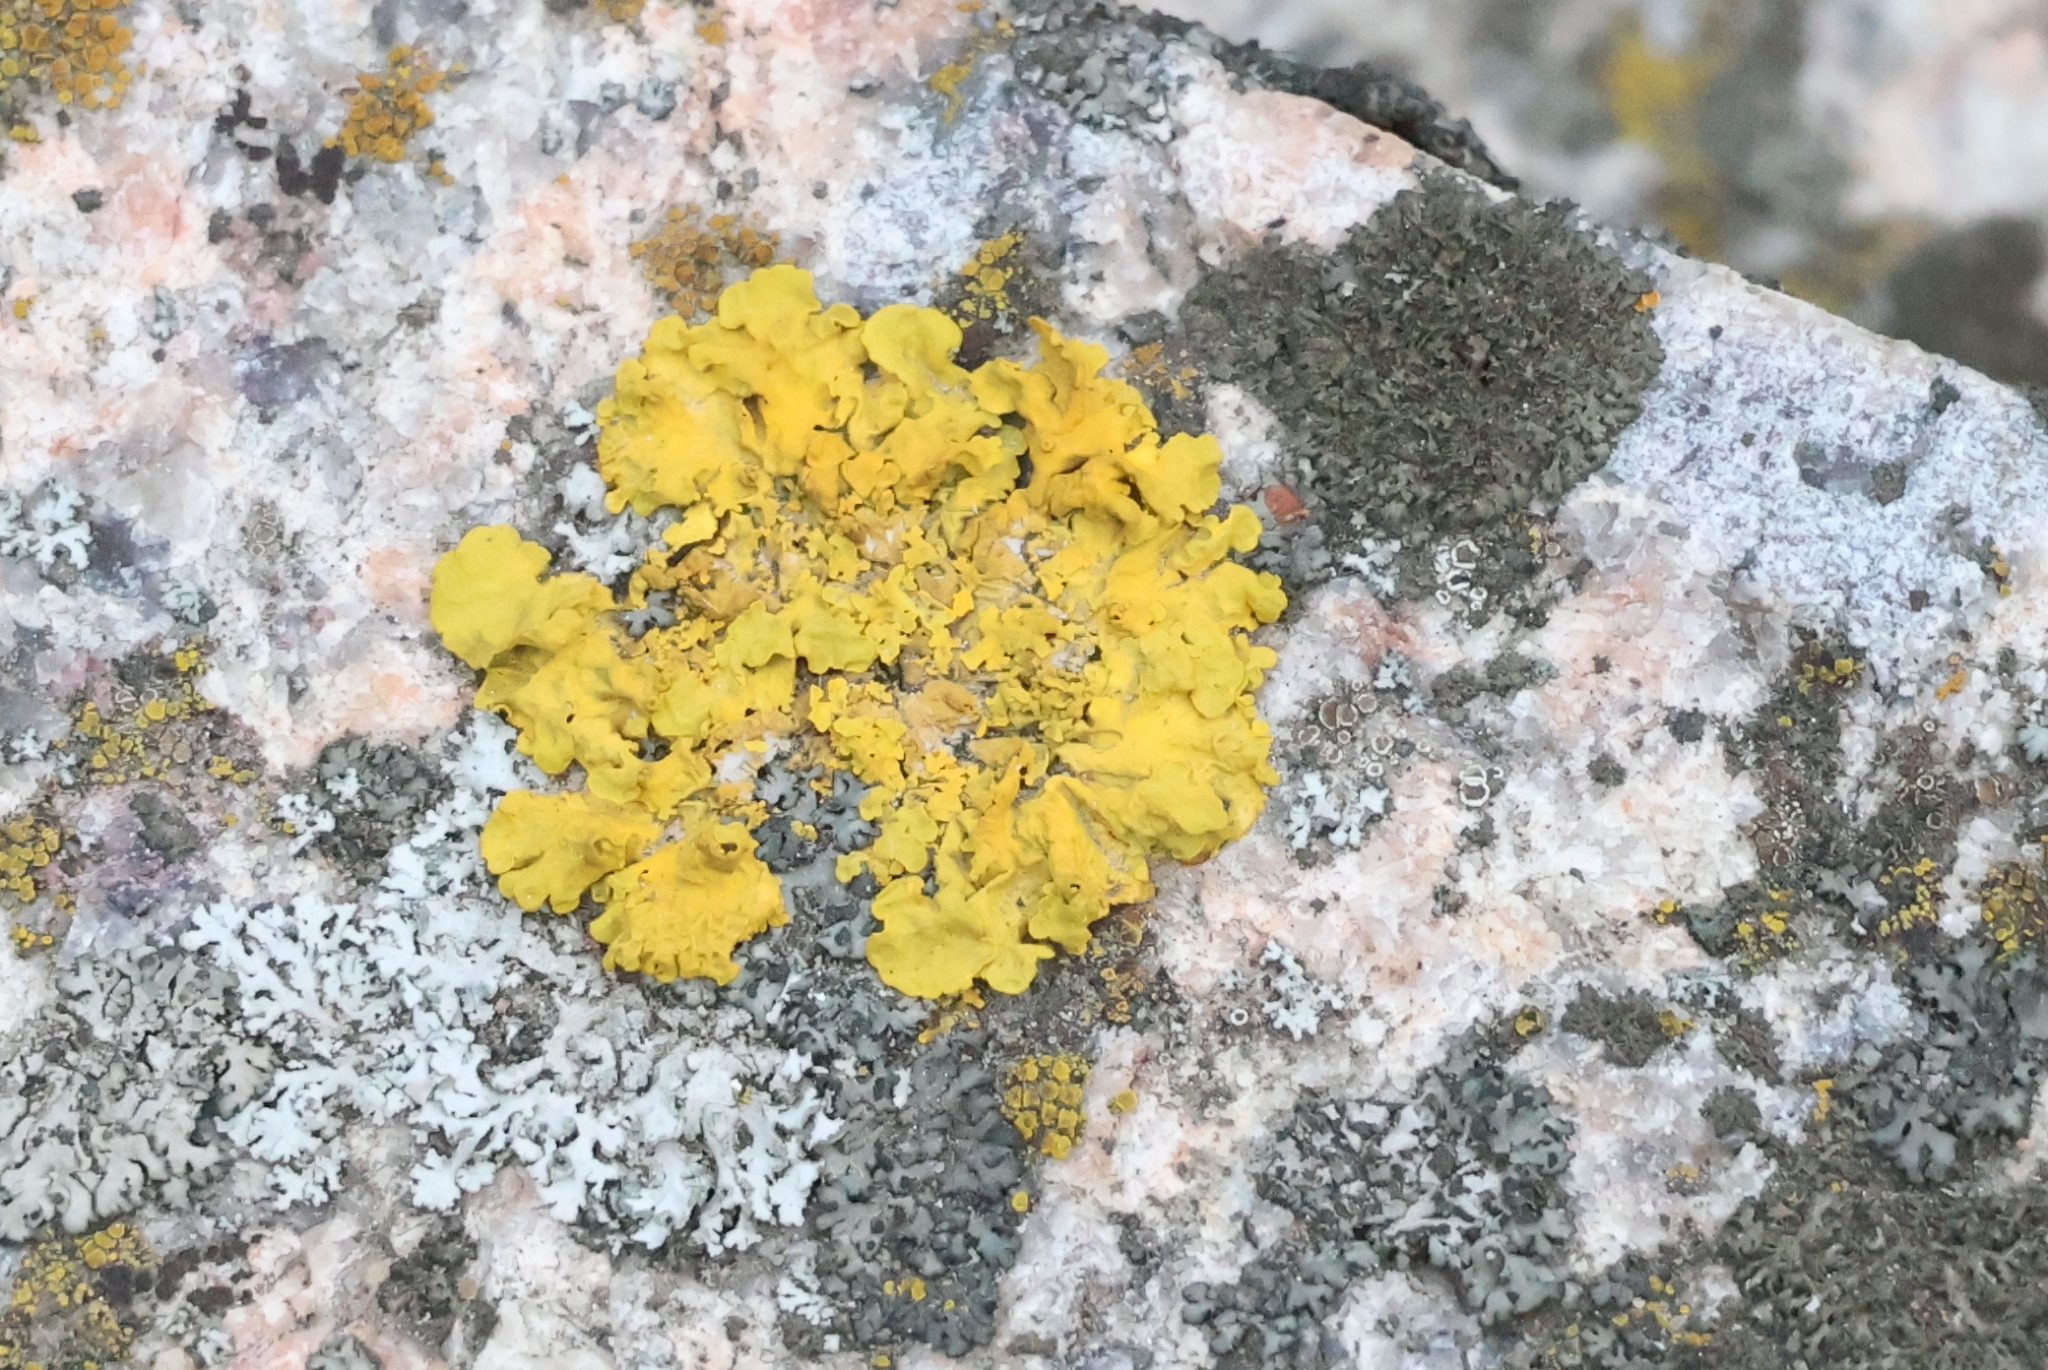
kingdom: Fungi
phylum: Ascomycota
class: Lecanoromycetes
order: Teloschistales
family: Teloschistaceae
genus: Xanthoria
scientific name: Xanthoria parietina
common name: Common orange lichen
